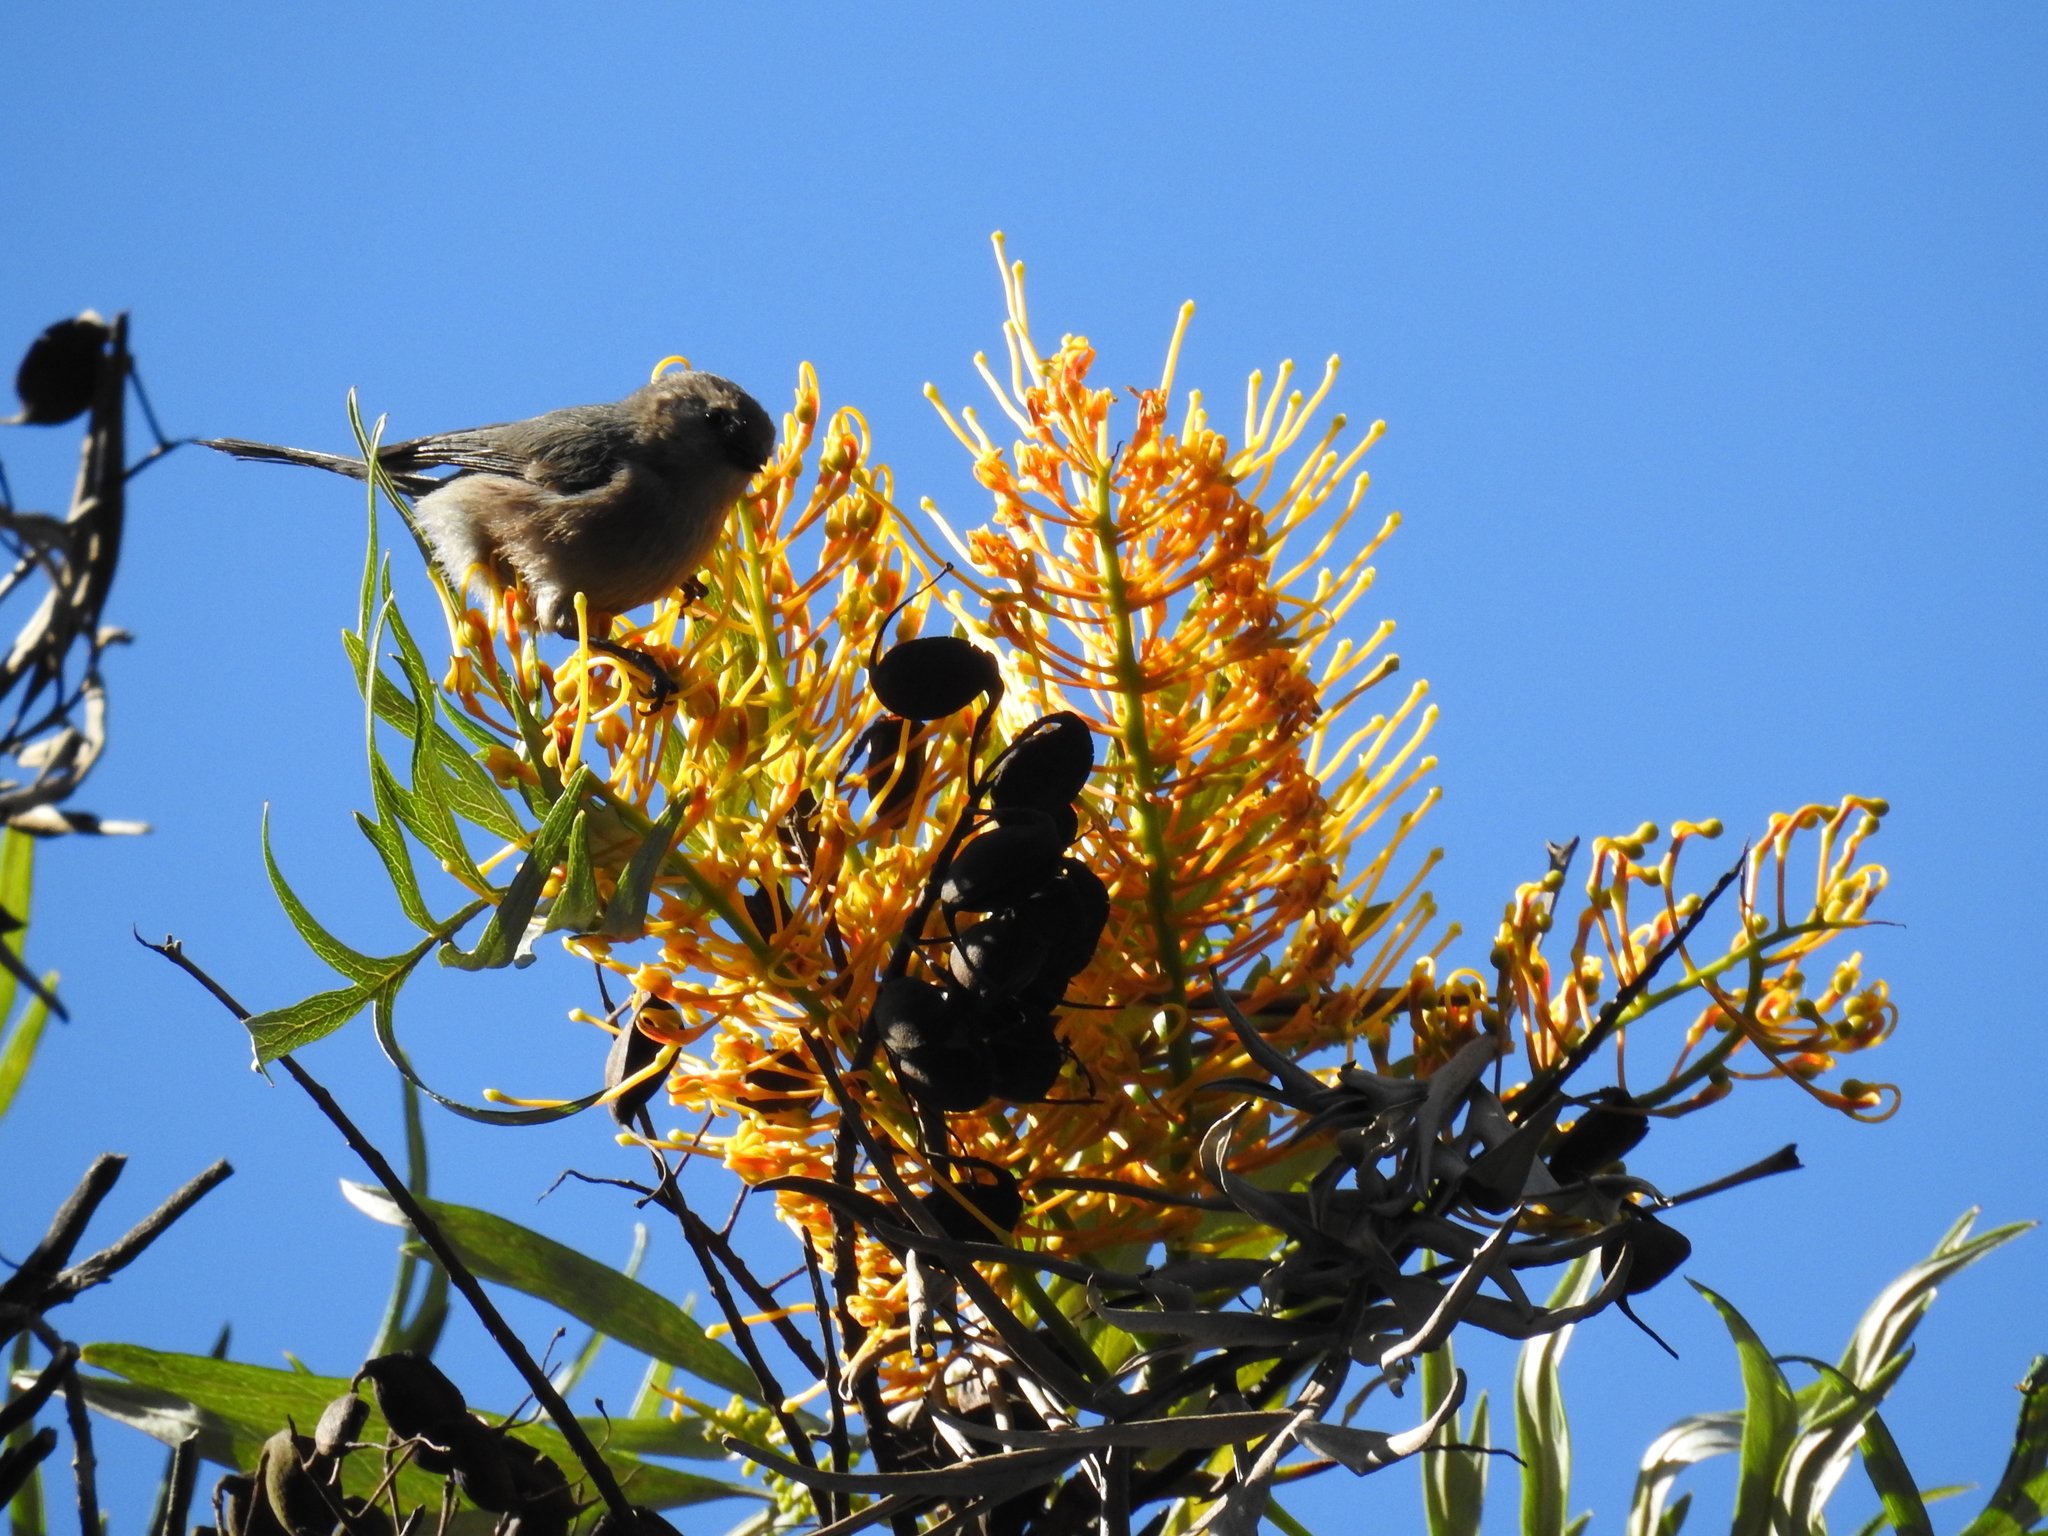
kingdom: Animalia
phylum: Chordata
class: Aves
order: Passeriformes
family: Aegithalidae
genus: Psaltriparus
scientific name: Psaltriparus minimus
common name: American bushtit
